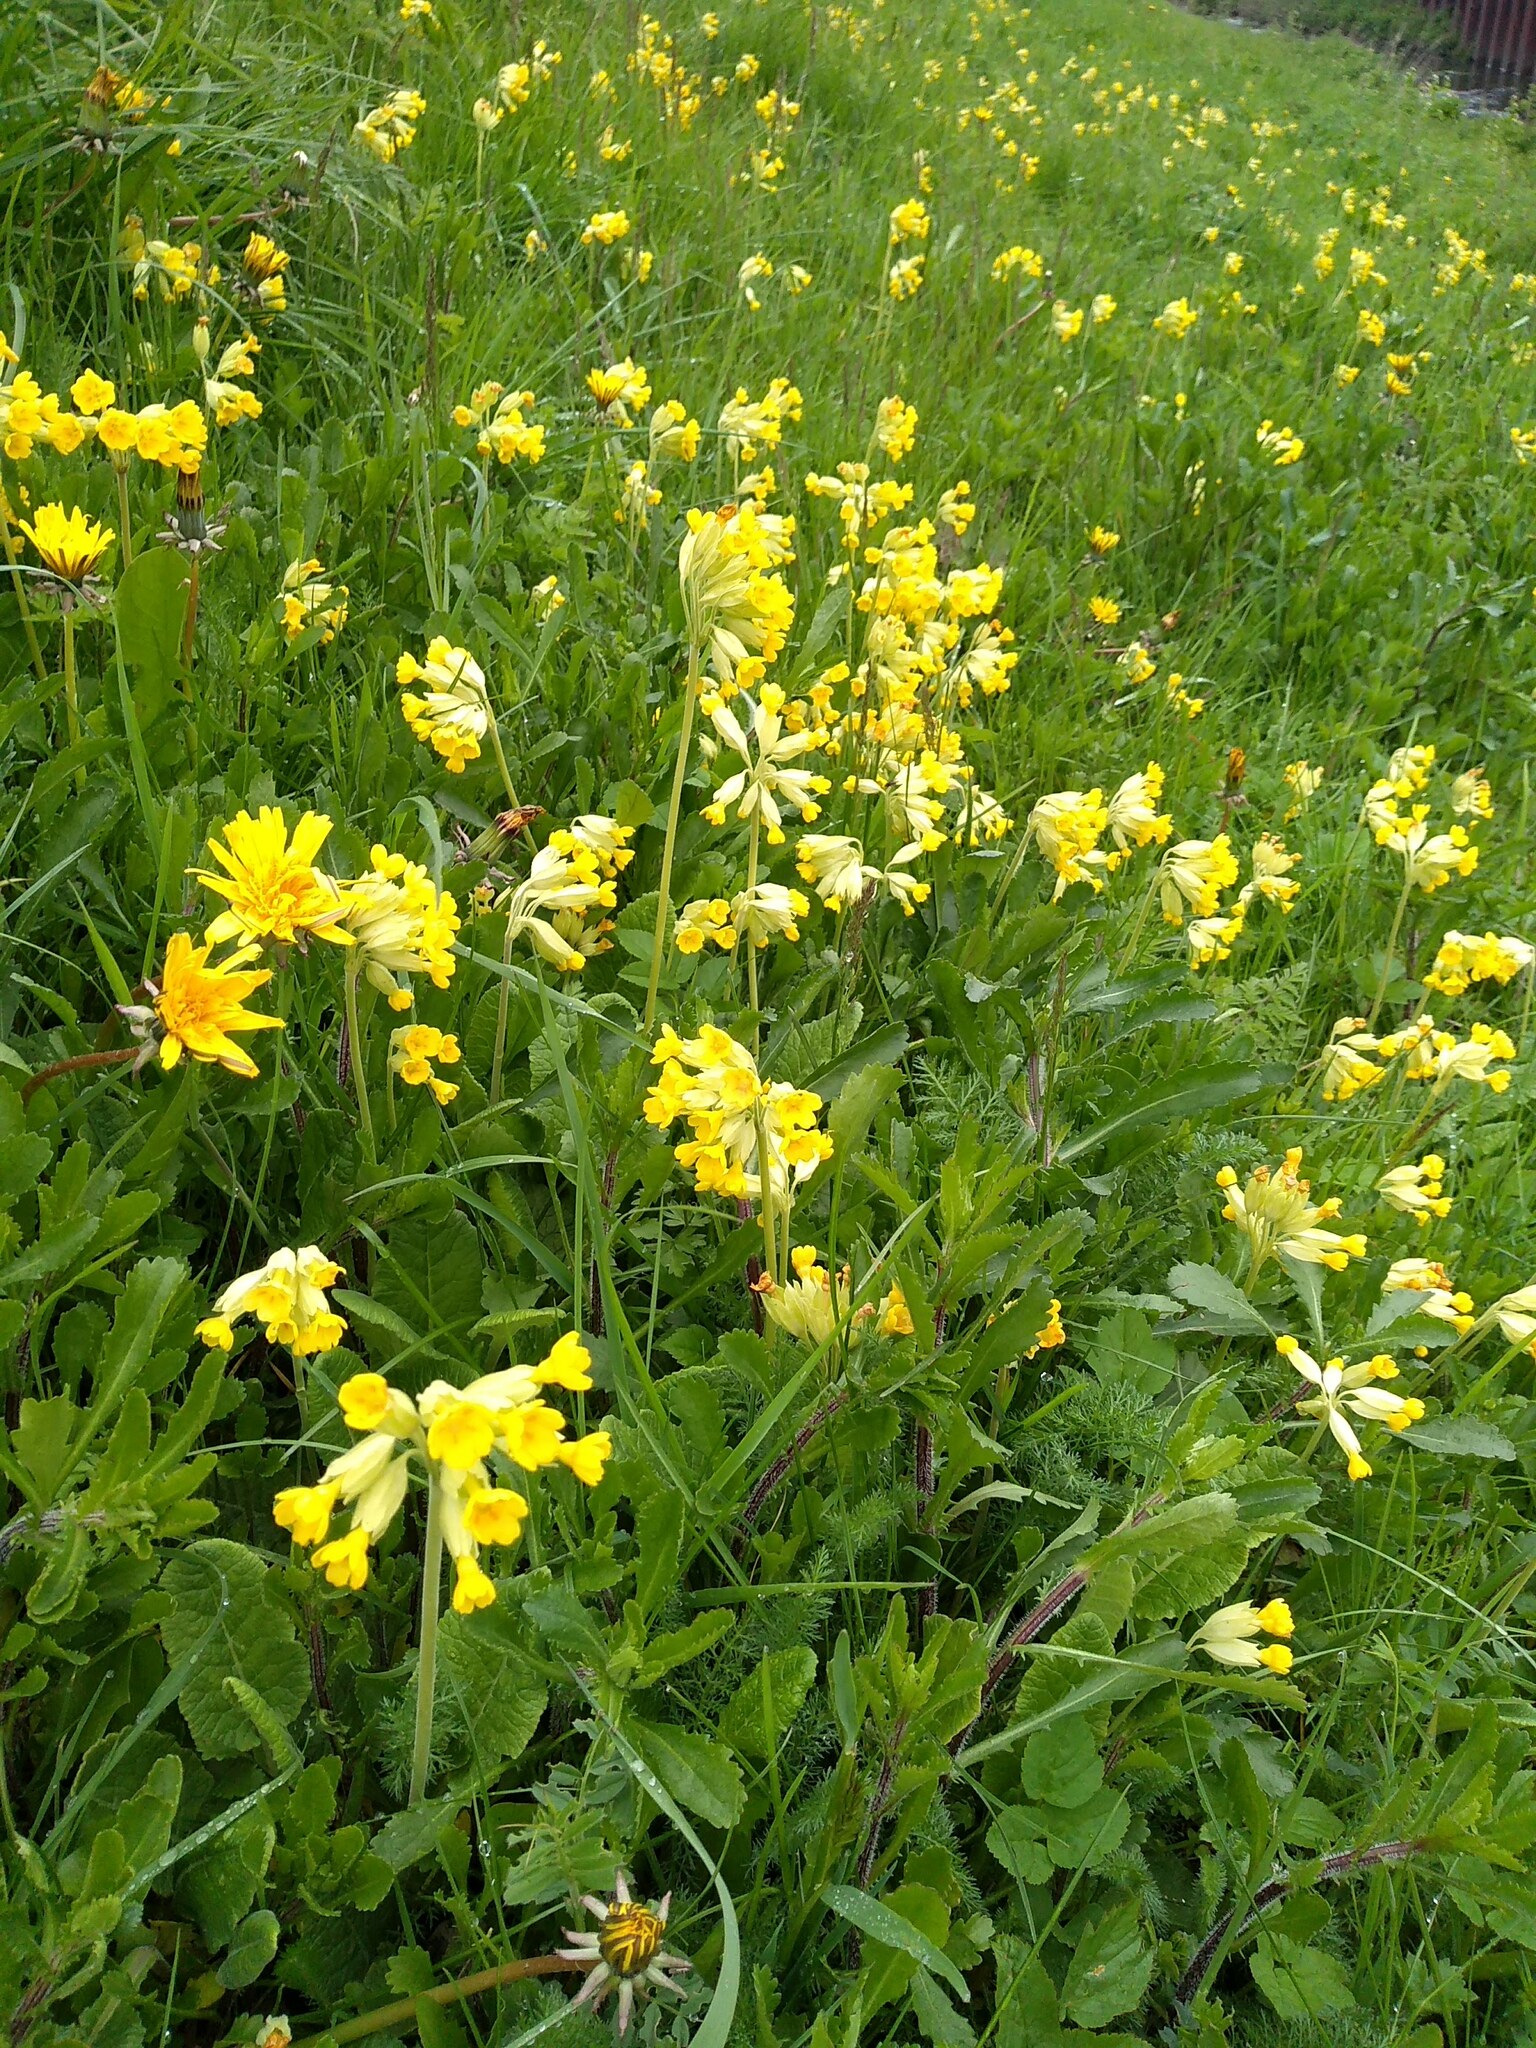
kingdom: Plantae
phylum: Tracheophyta
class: Magnoliopsida
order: Ericales
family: Primulaceae
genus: Primula
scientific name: Primula veris
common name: Cowslip
